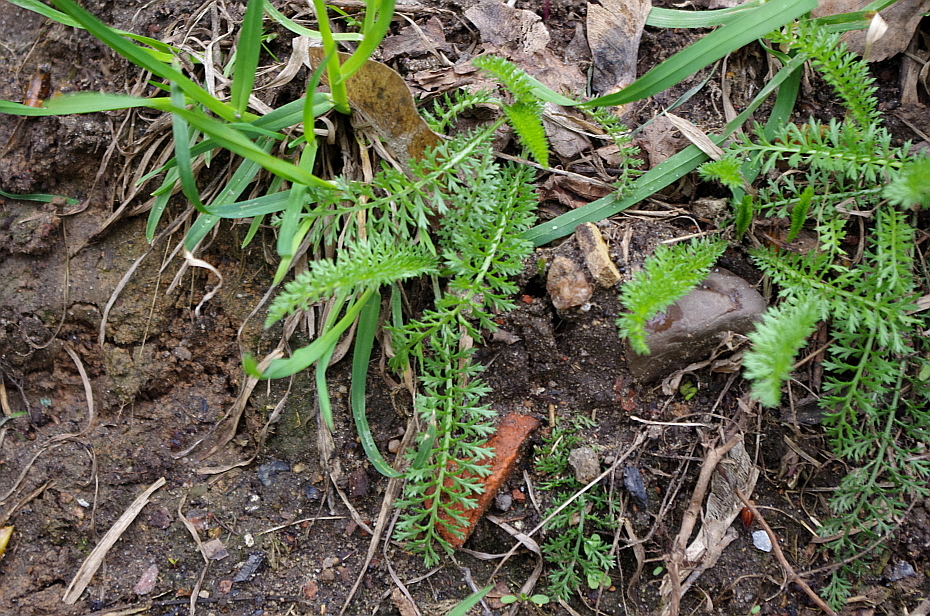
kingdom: Plantae
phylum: Tracheophyta
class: Magnoliopsida
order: Asterales
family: Asteraceae
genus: Achillea
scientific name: Achillea millefolium
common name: Yarrow
